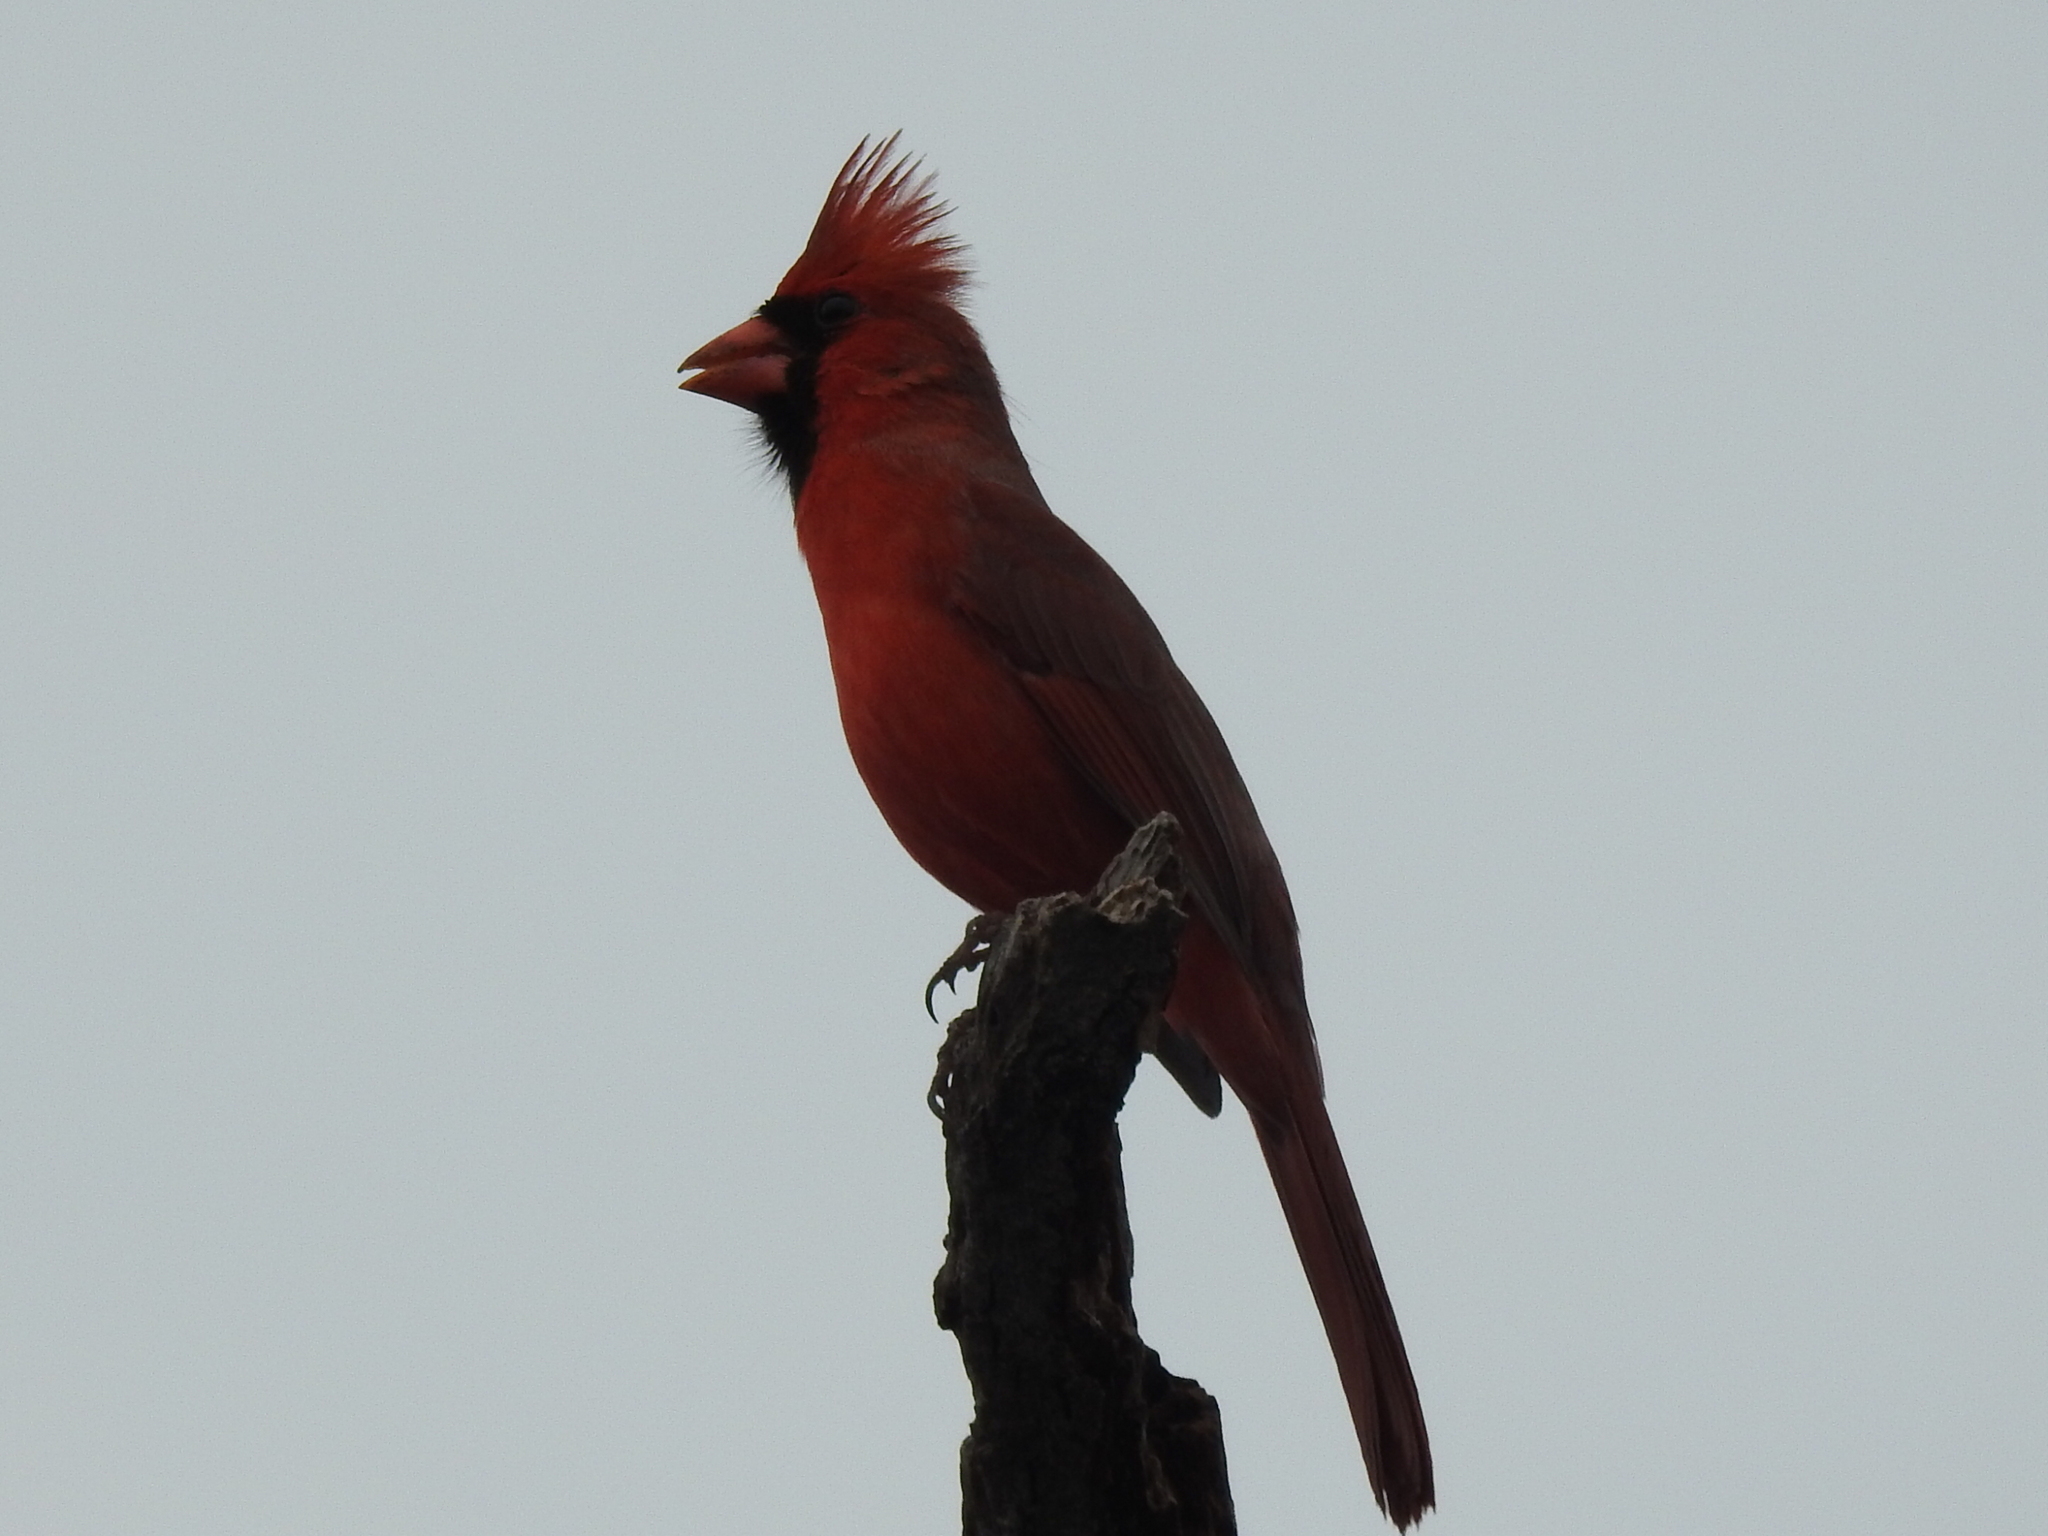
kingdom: Animalia
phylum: Chordata
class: Aves
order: Passeriformes
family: Cardinalidae
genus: Cardinalis
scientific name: Cardinalis cardinalis
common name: Northern cardinal
